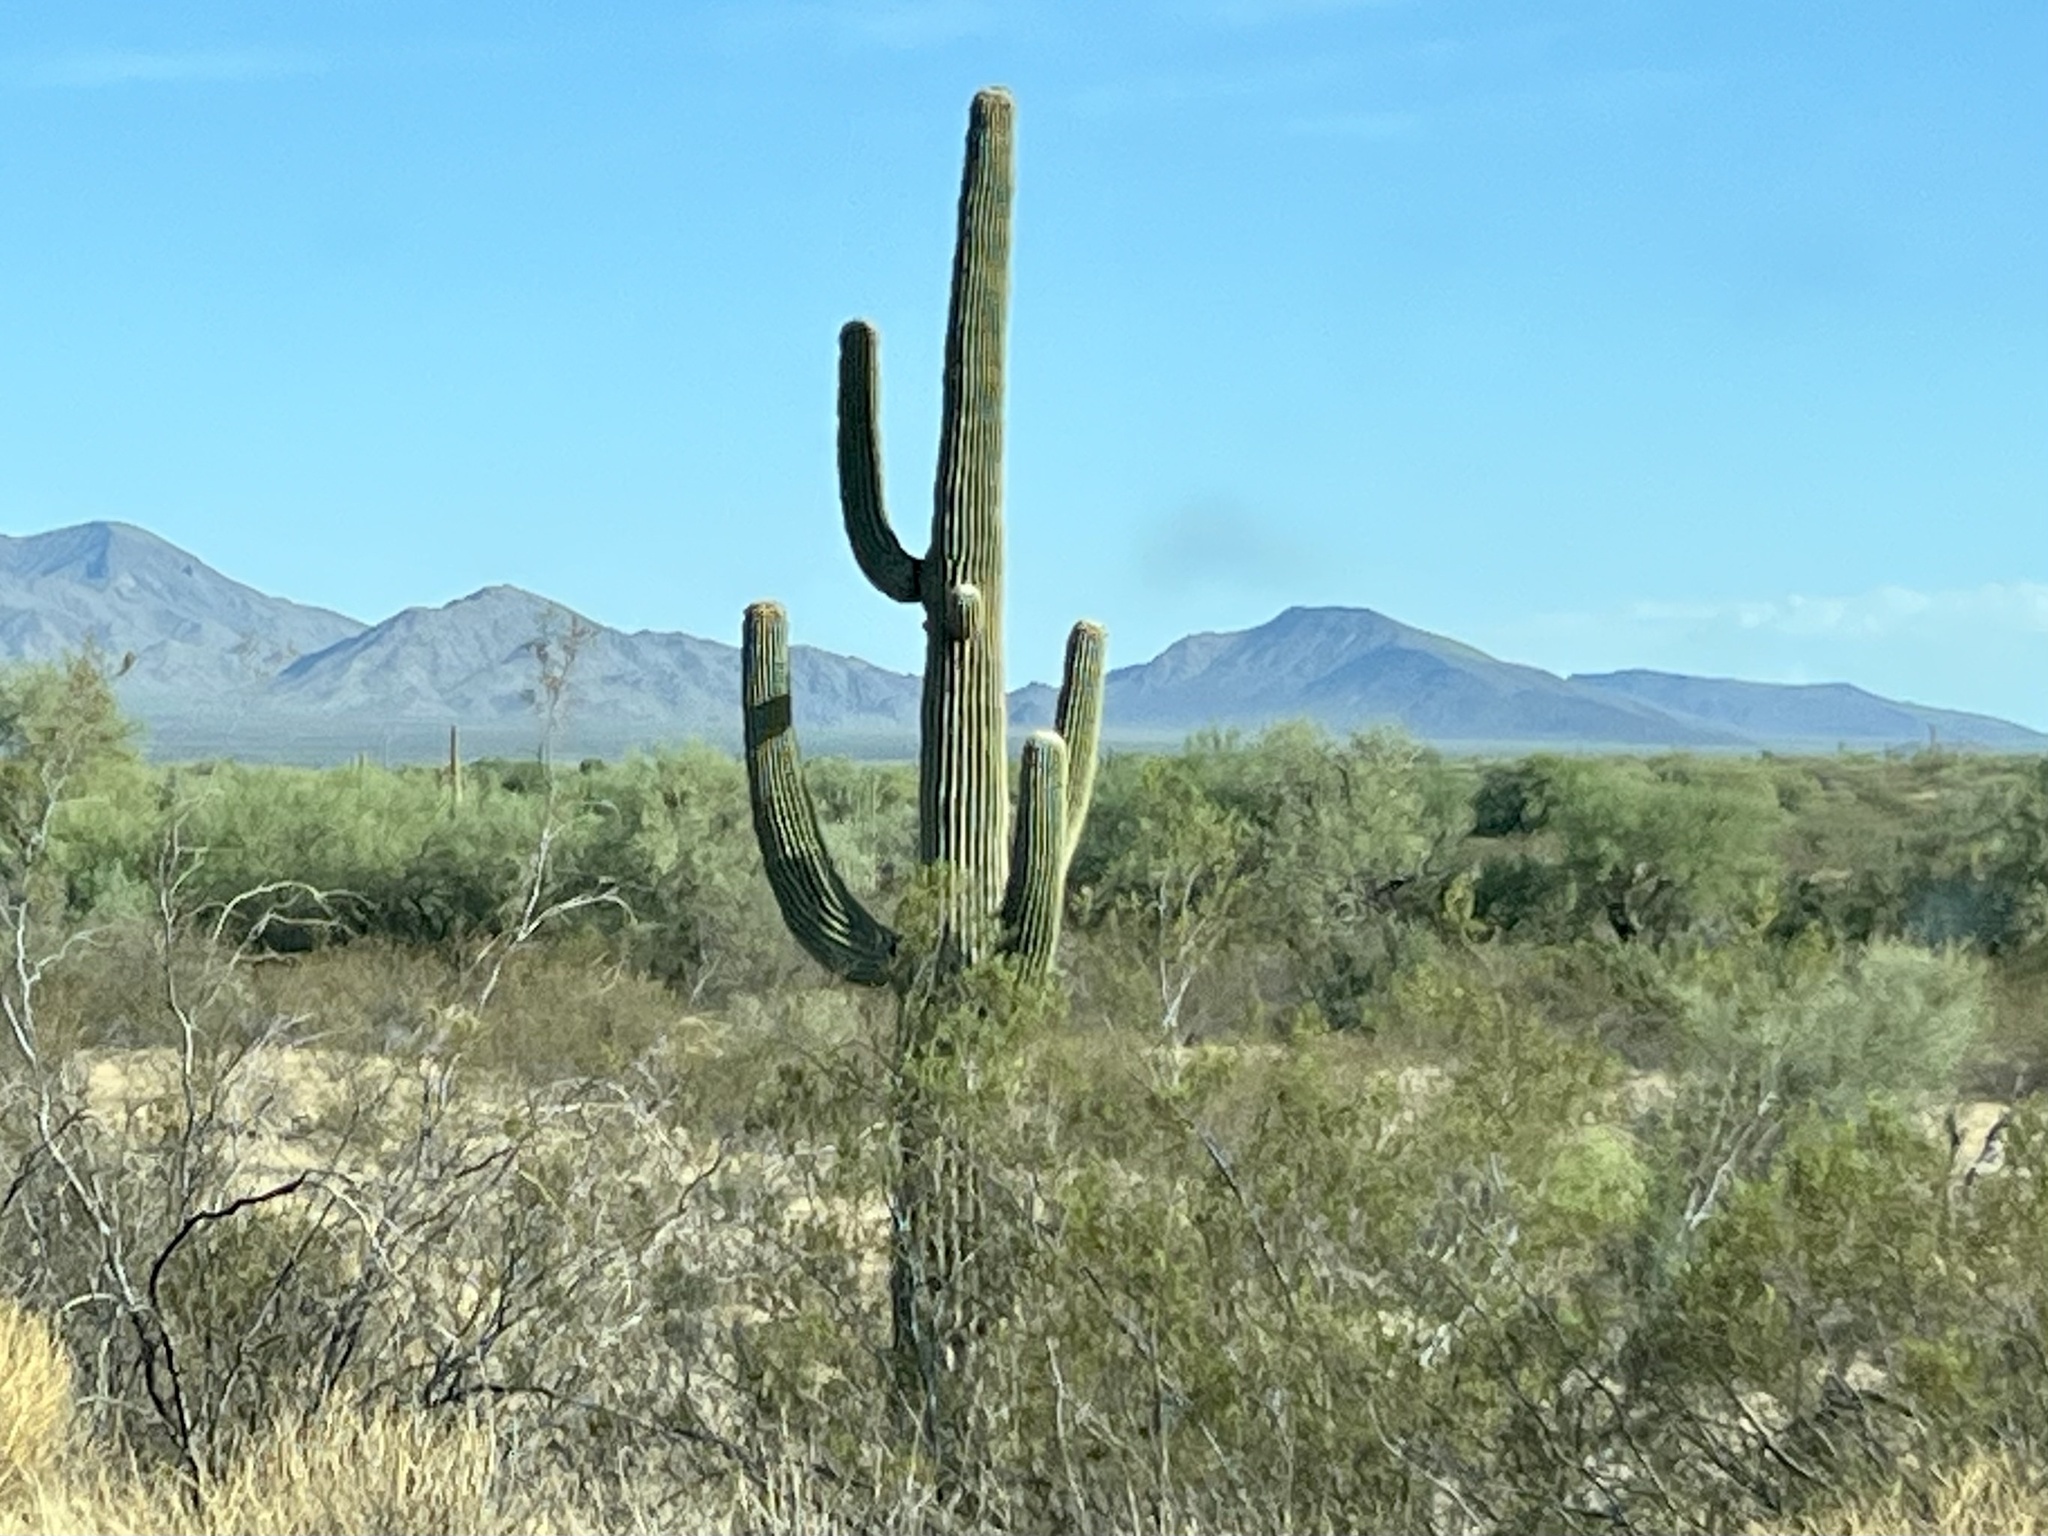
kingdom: Plantae
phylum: Tracheophyta
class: Magnoliopsida
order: Caryophyllales
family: Cactaceae
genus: Carnegiea
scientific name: Carnegiea gigantea
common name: Saguaro
